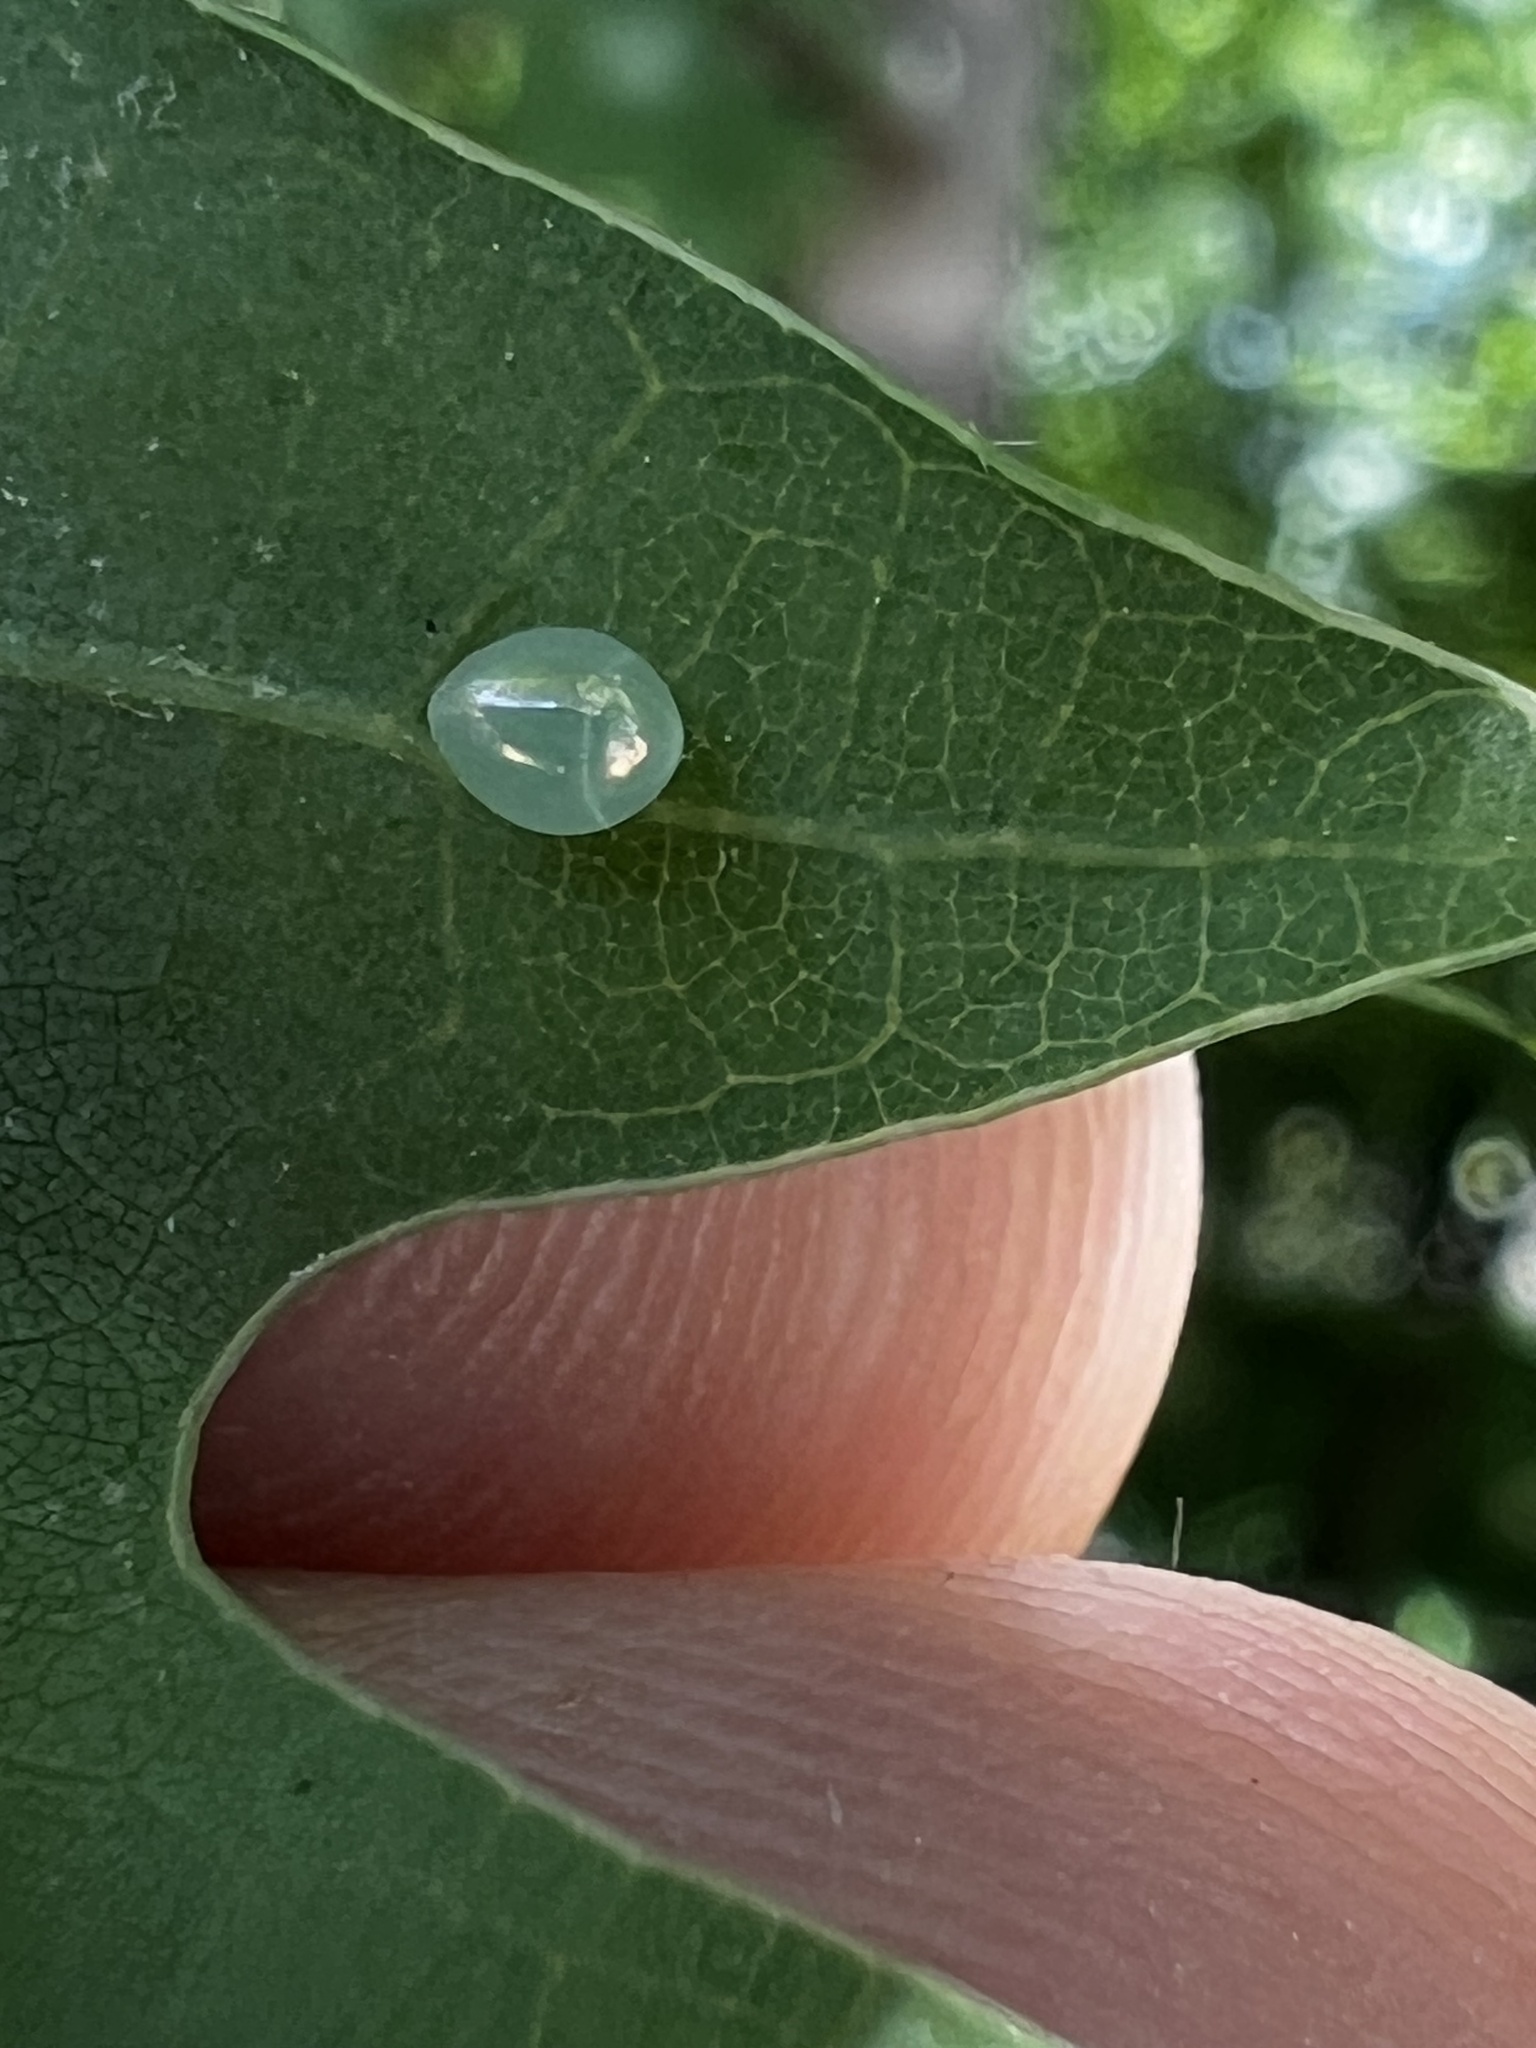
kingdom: Animalia
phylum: Arthropoda
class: Insecta
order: Hemiptera
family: Coreidae
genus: Acanthocephala
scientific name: Acanthocephala terminalis
